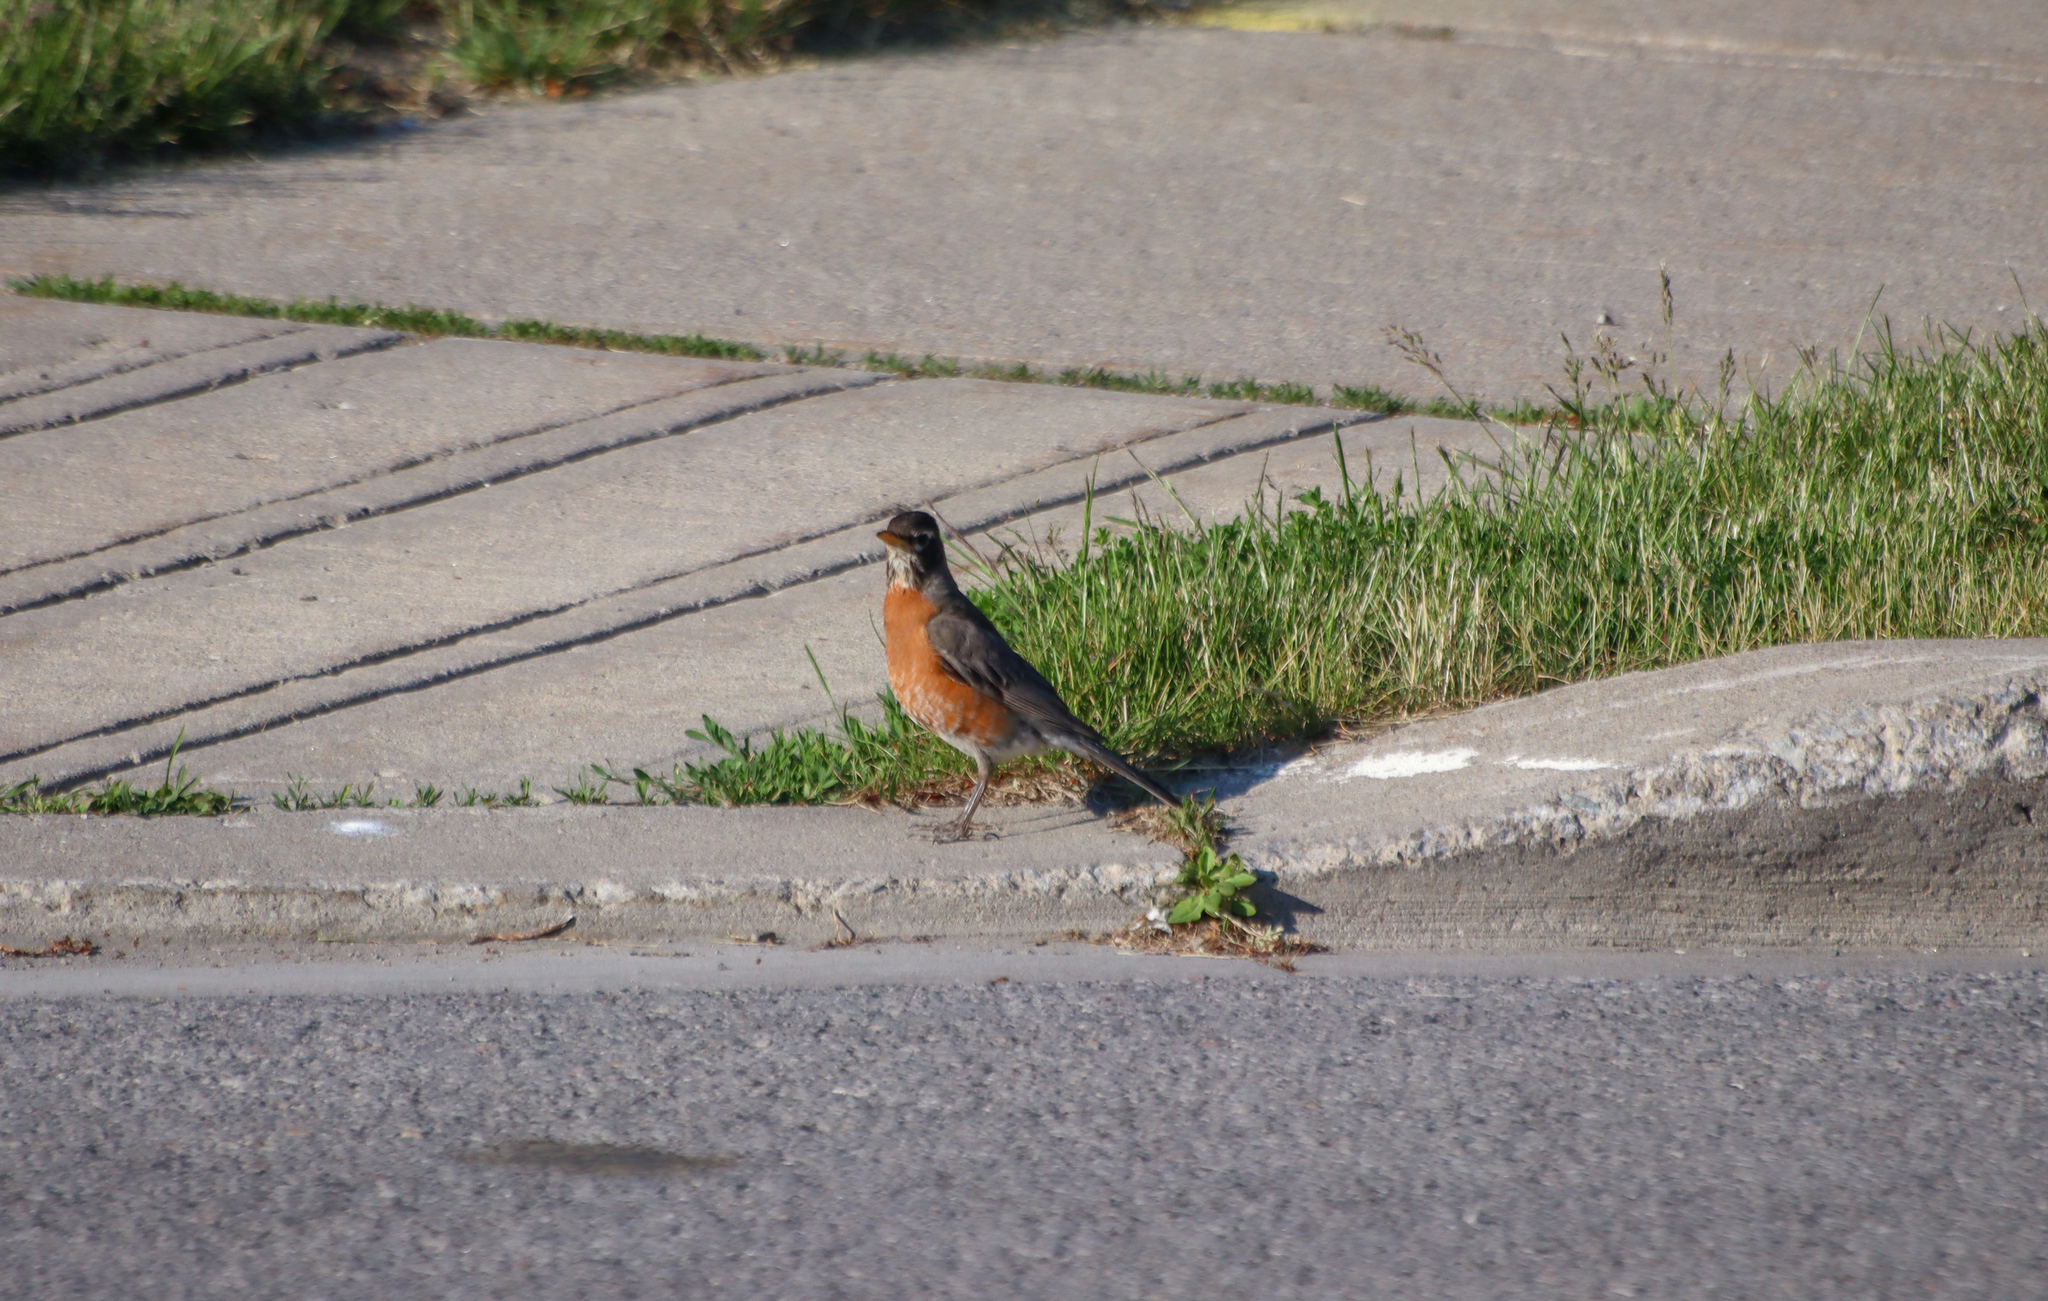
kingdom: Animalia
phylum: Chordata
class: Aves
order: Passeriformes
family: Turdidae
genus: Turdus
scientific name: Turdus migratorius
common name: American robin
